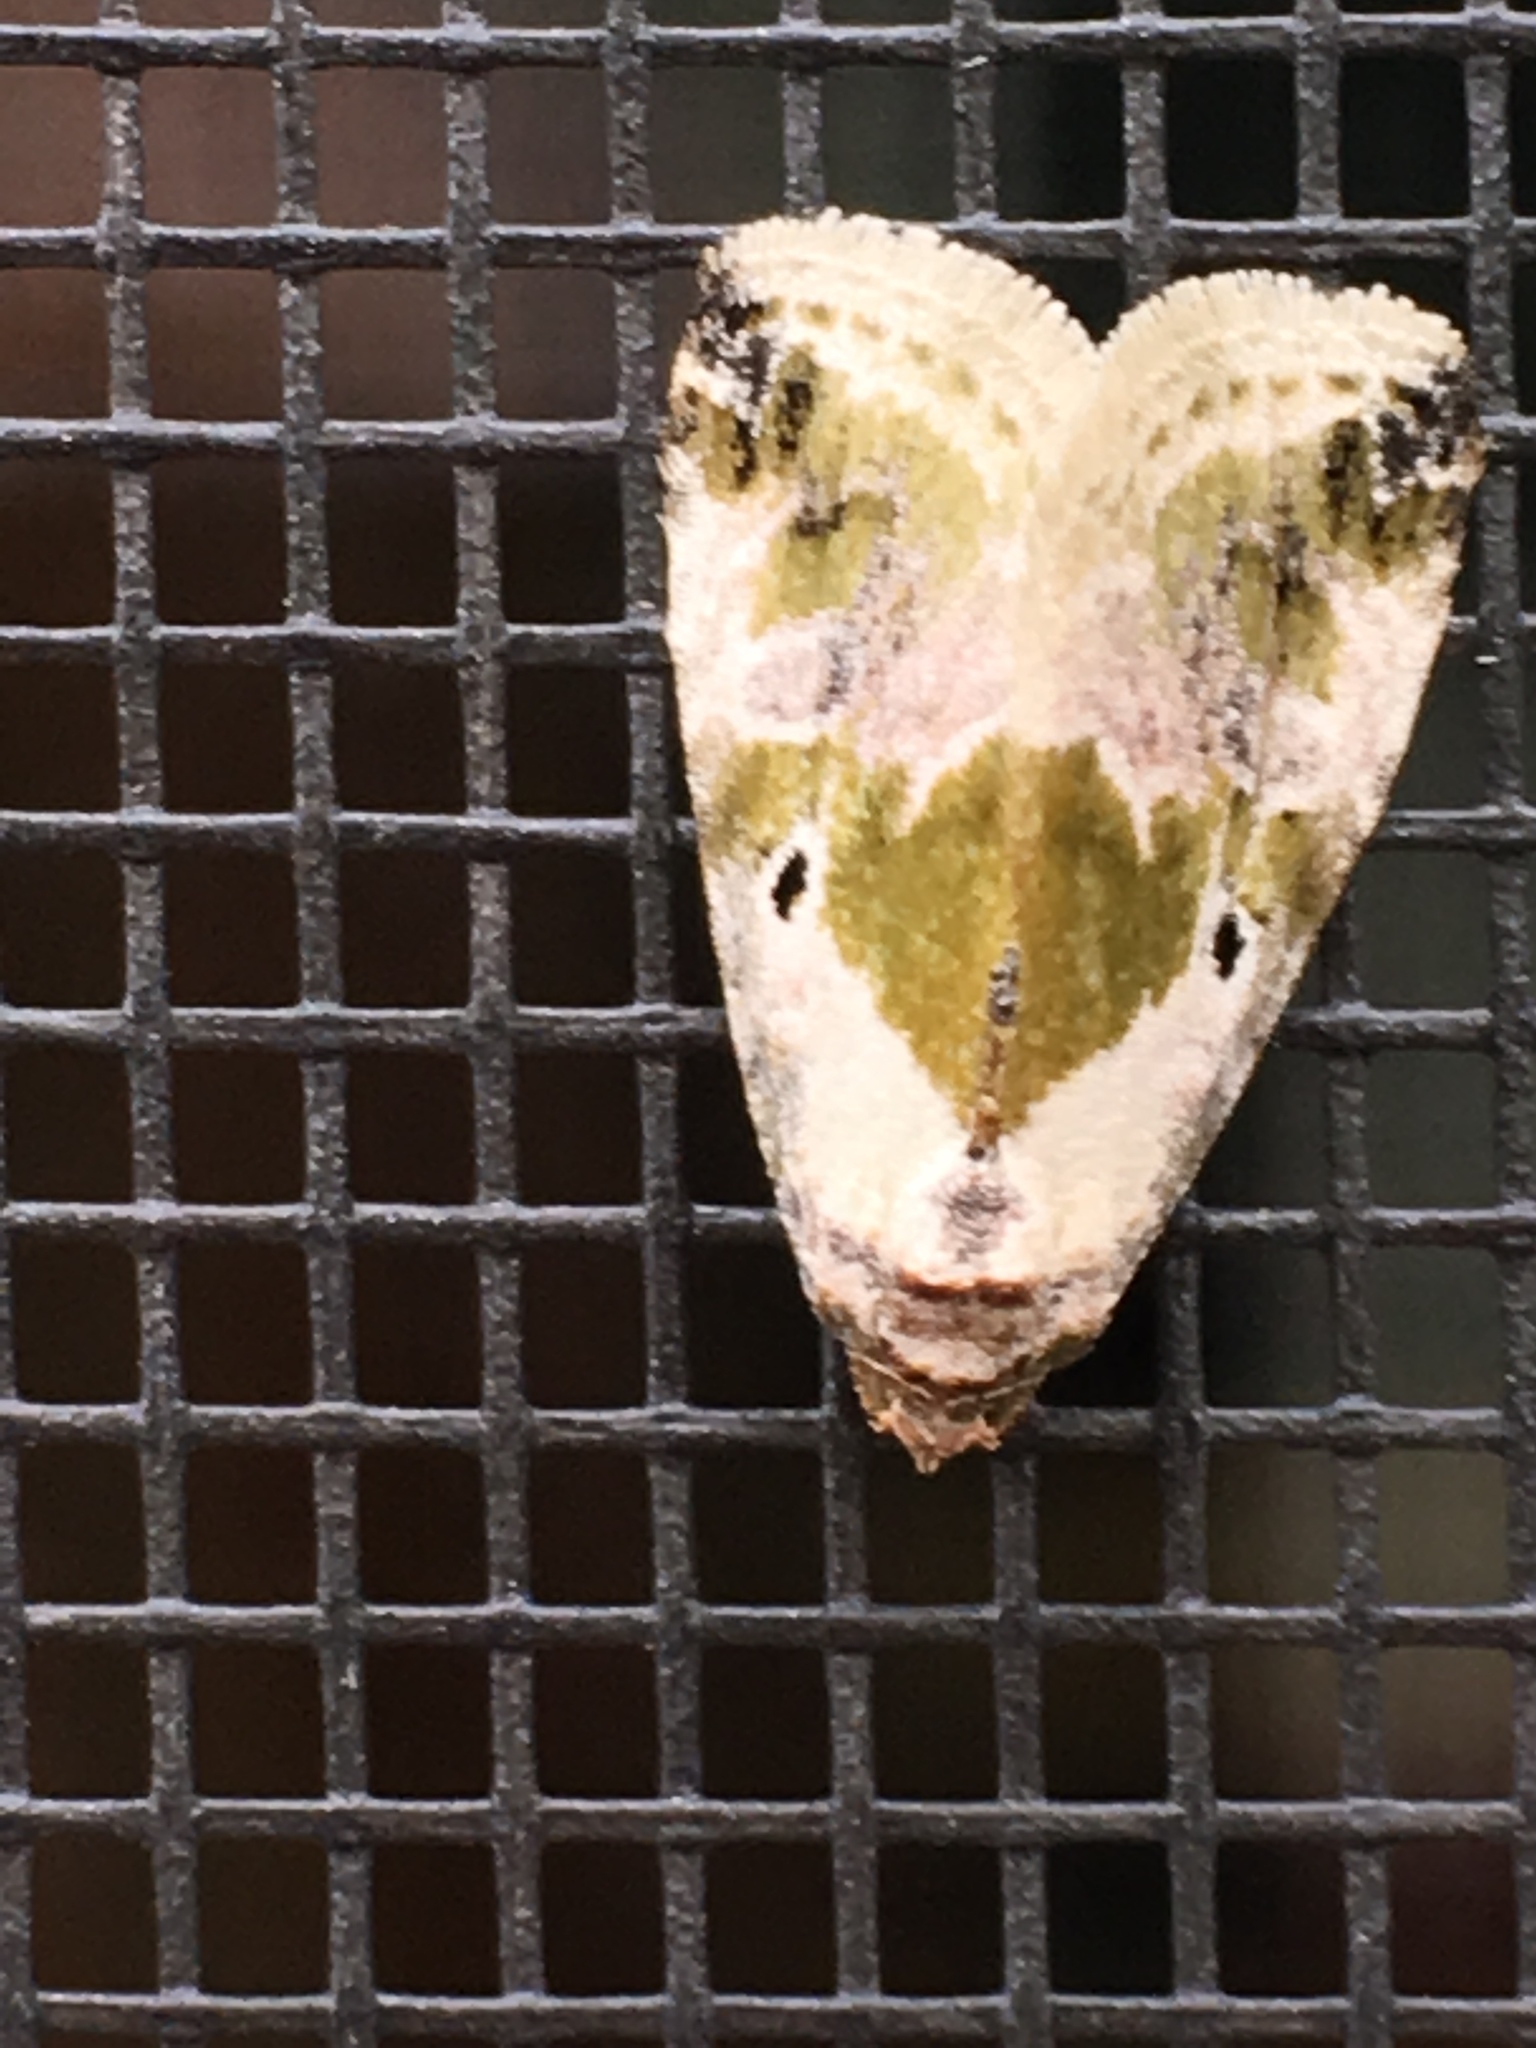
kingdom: Animalia
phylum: Arthropoda
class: Insecta
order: Lepidoptera
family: Noctuidae
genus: Maliattha
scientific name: Maliattha synochitis
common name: Black-dotted glyph
